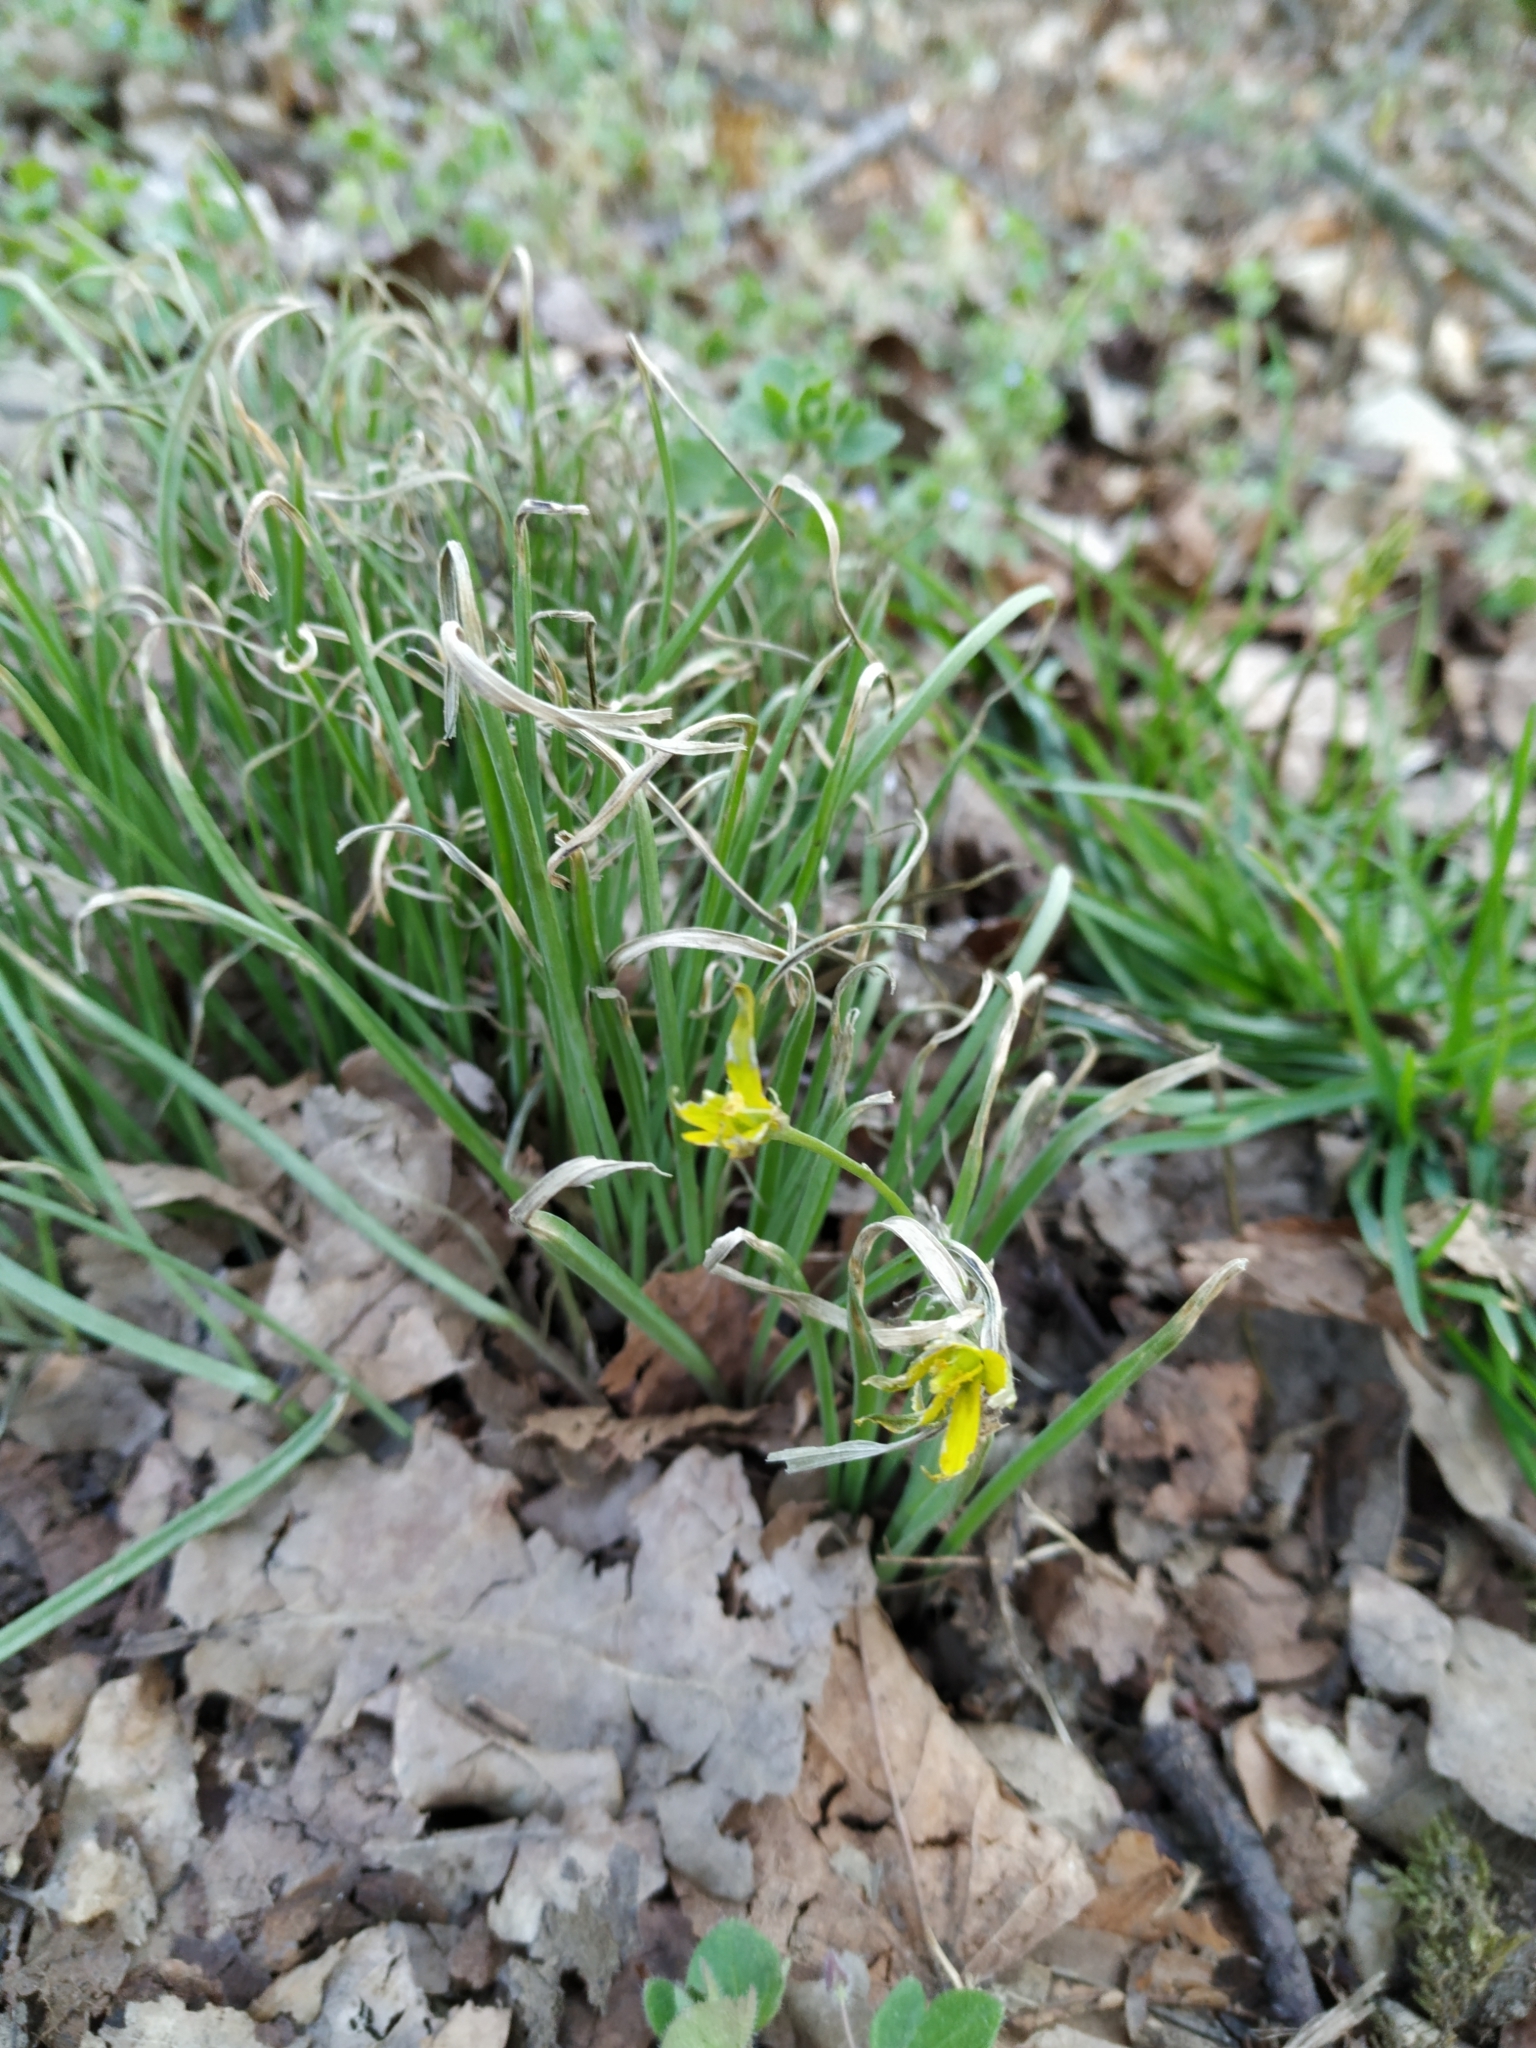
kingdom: Plantae
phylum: Tracheophyta
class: Liliopsida
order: Liliales
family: Liliaceae
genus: Gagea
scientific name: Gagea pratensis
